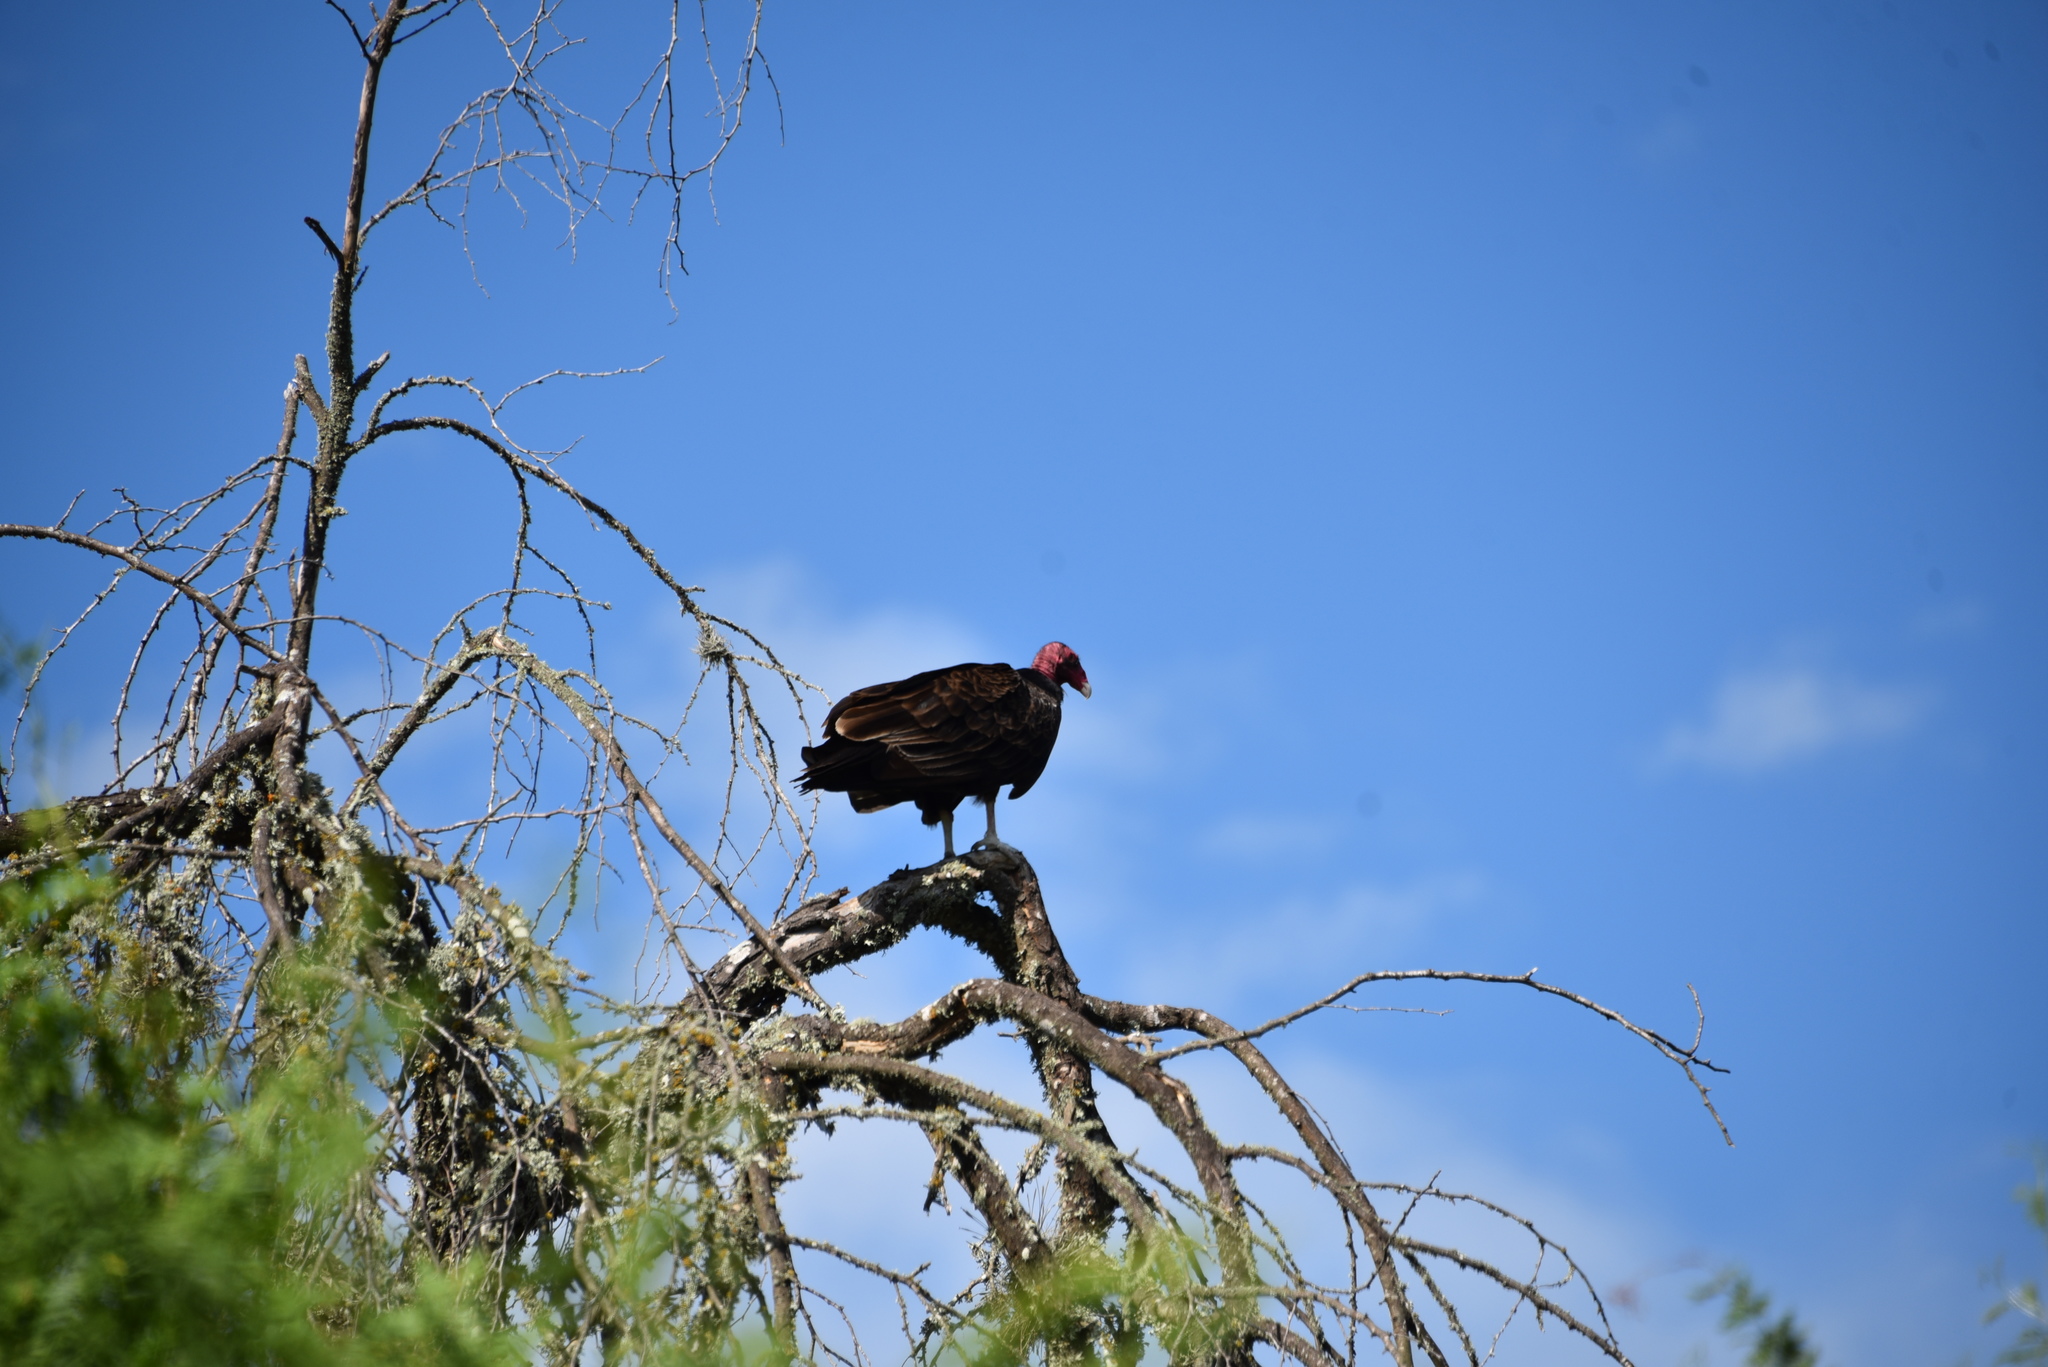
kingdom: Animalia
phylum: Chordata
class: Aves
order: Accipitriformes
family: Cathartidae
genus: Cathartes
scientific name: Cathartes aura
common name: Turkey vulture
